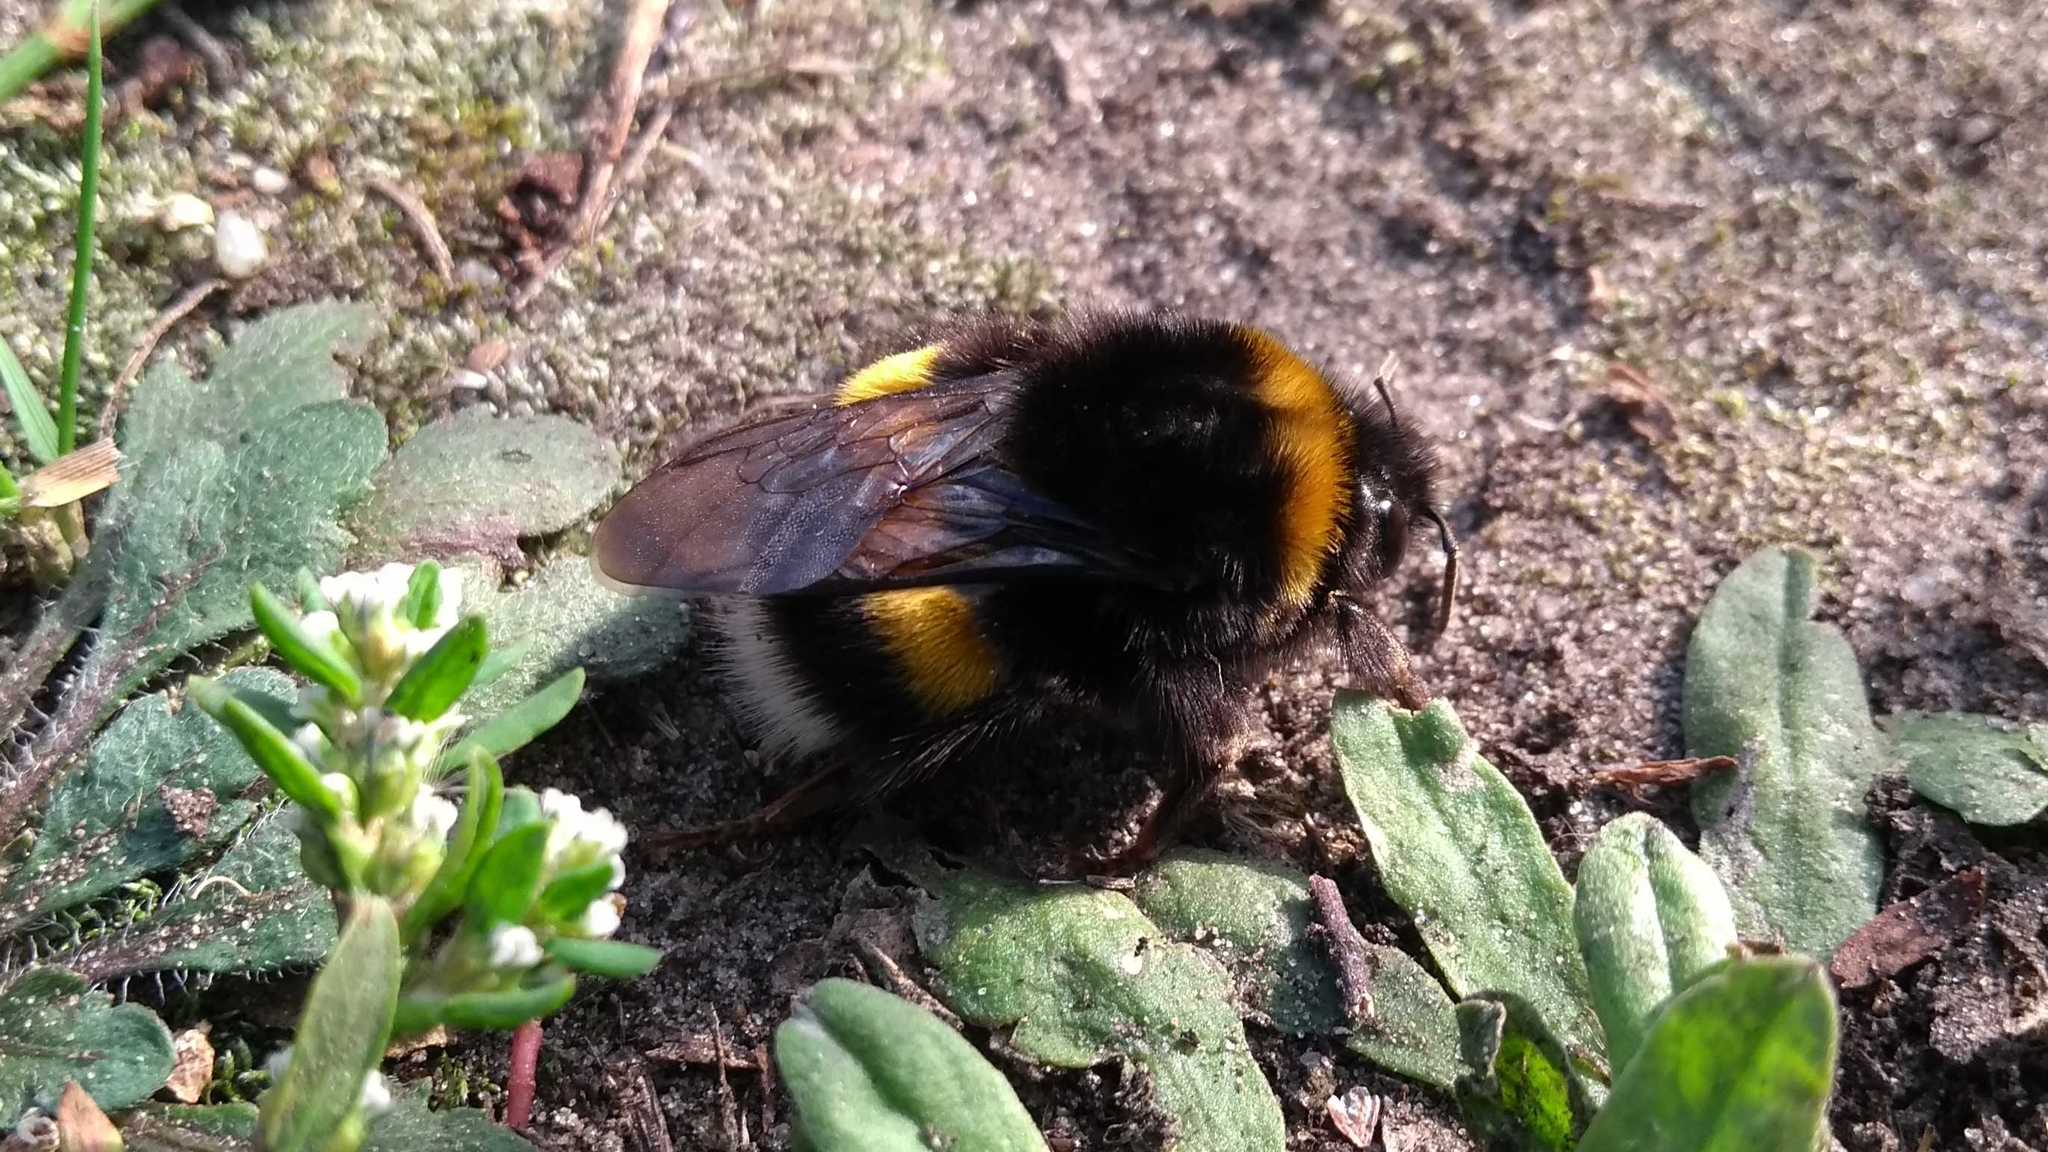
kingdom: Animalia
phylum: Arthropoda
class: Insecta
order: Hymenoptera
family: Apidae
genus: Bombus
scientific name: Bombus
